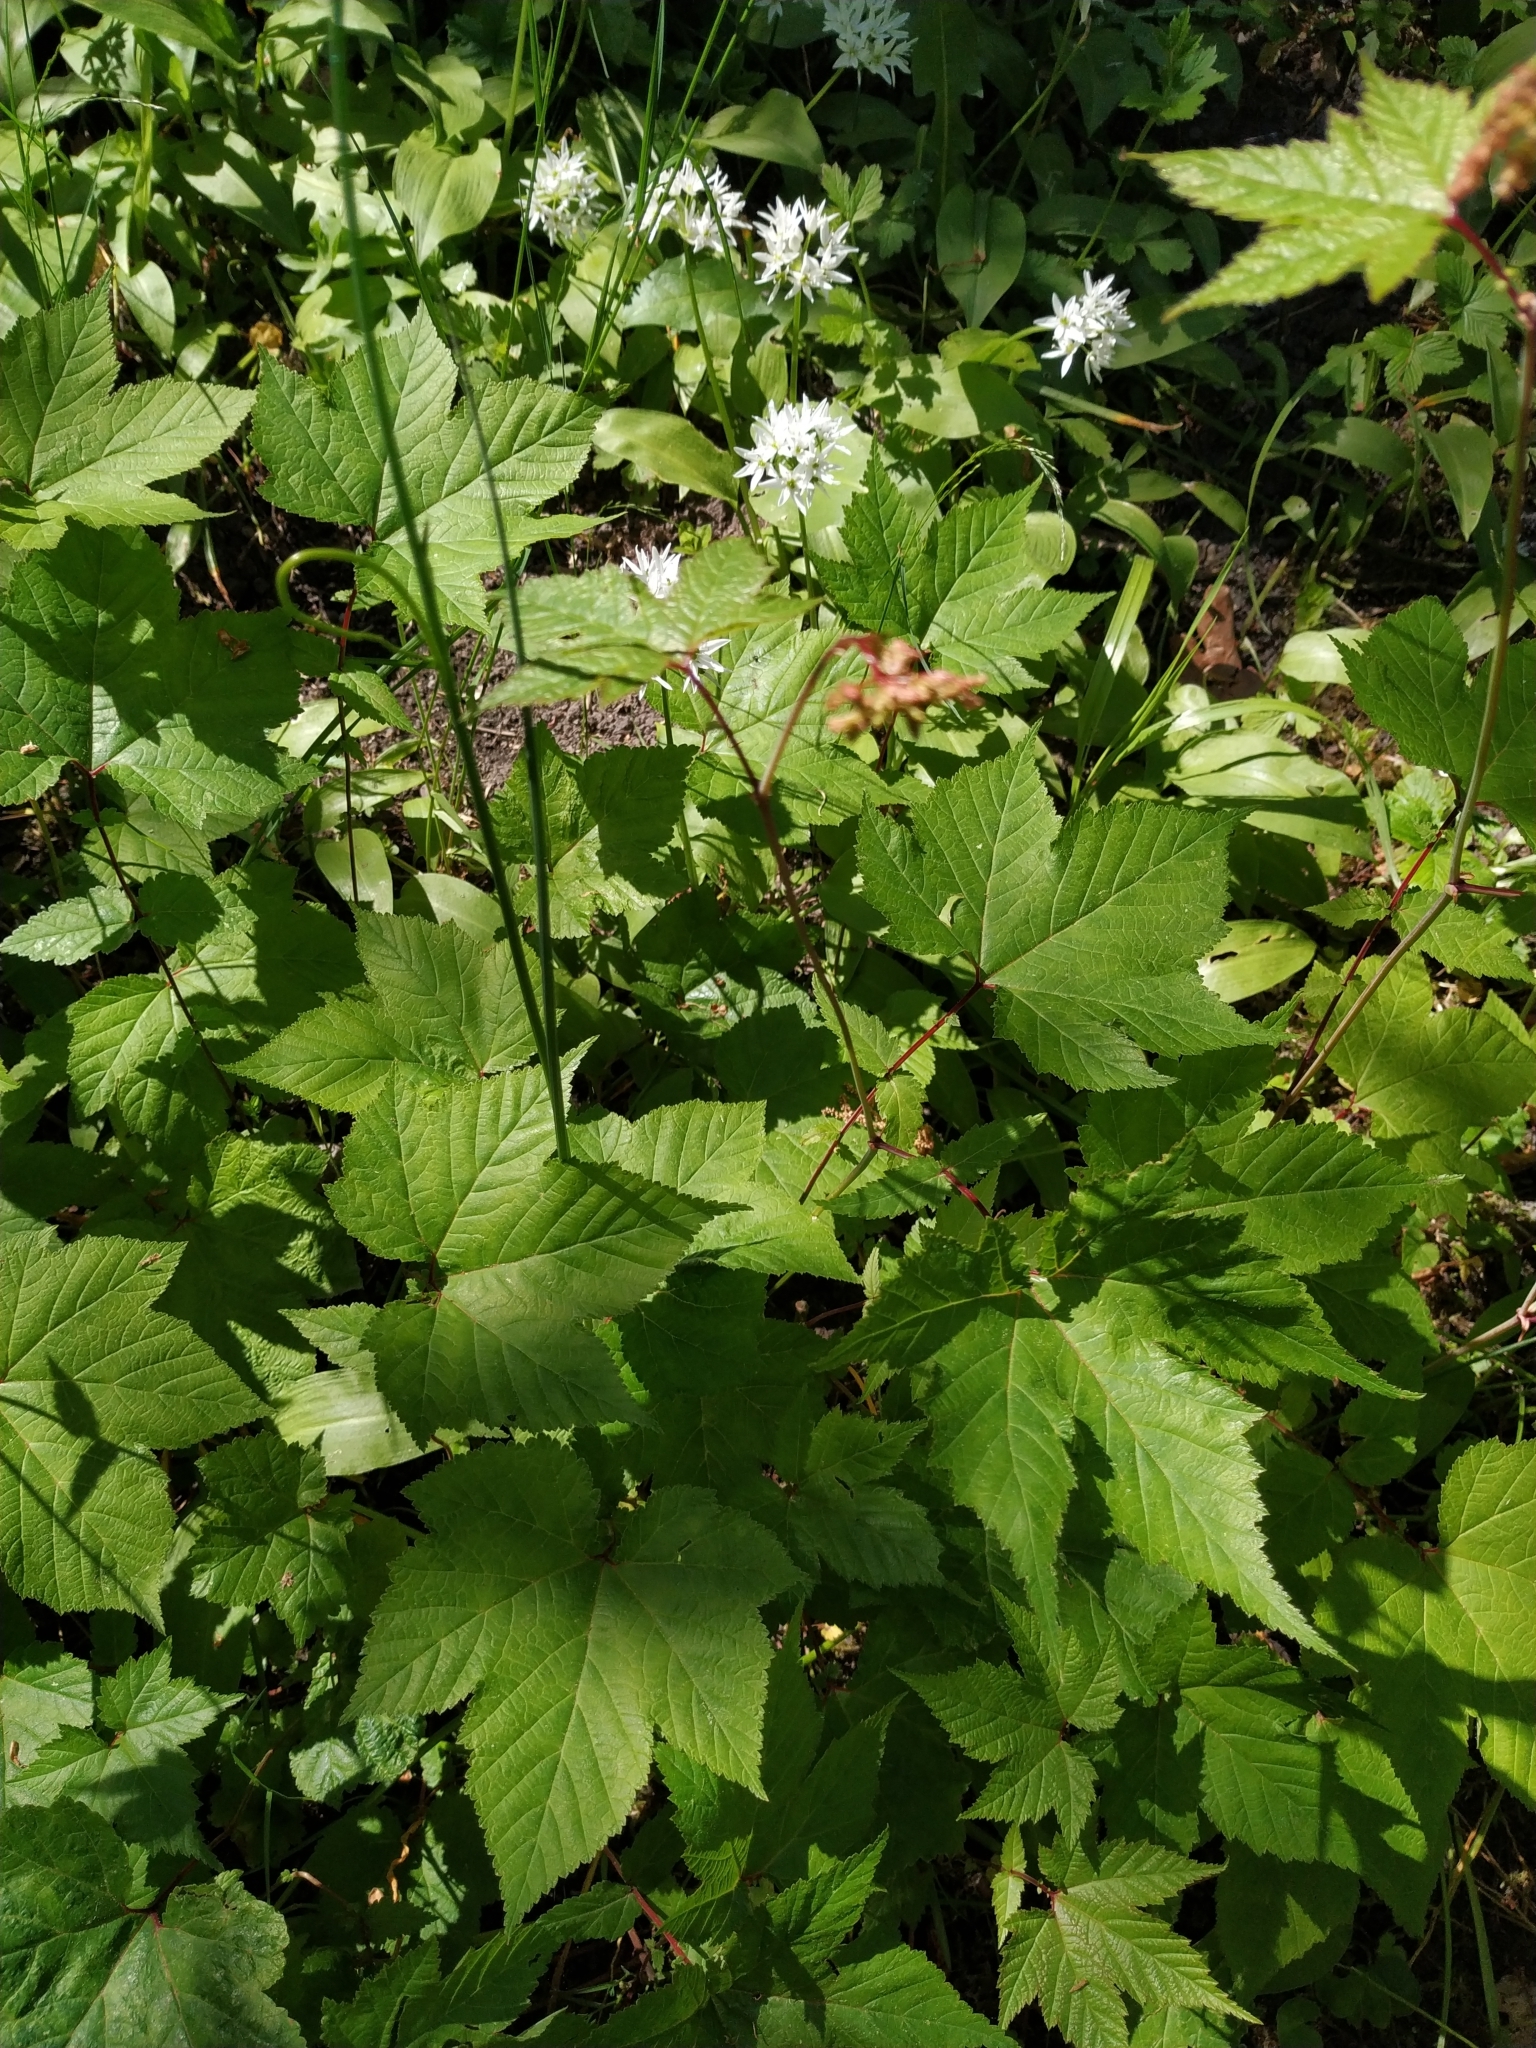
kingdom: Plantae
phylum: Tracheophyta
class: Magnoliopsida
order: Rosales
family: Rosaceae
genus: Filipendula
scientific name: Filipendula rubra
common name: Queen-of-the-prairie
